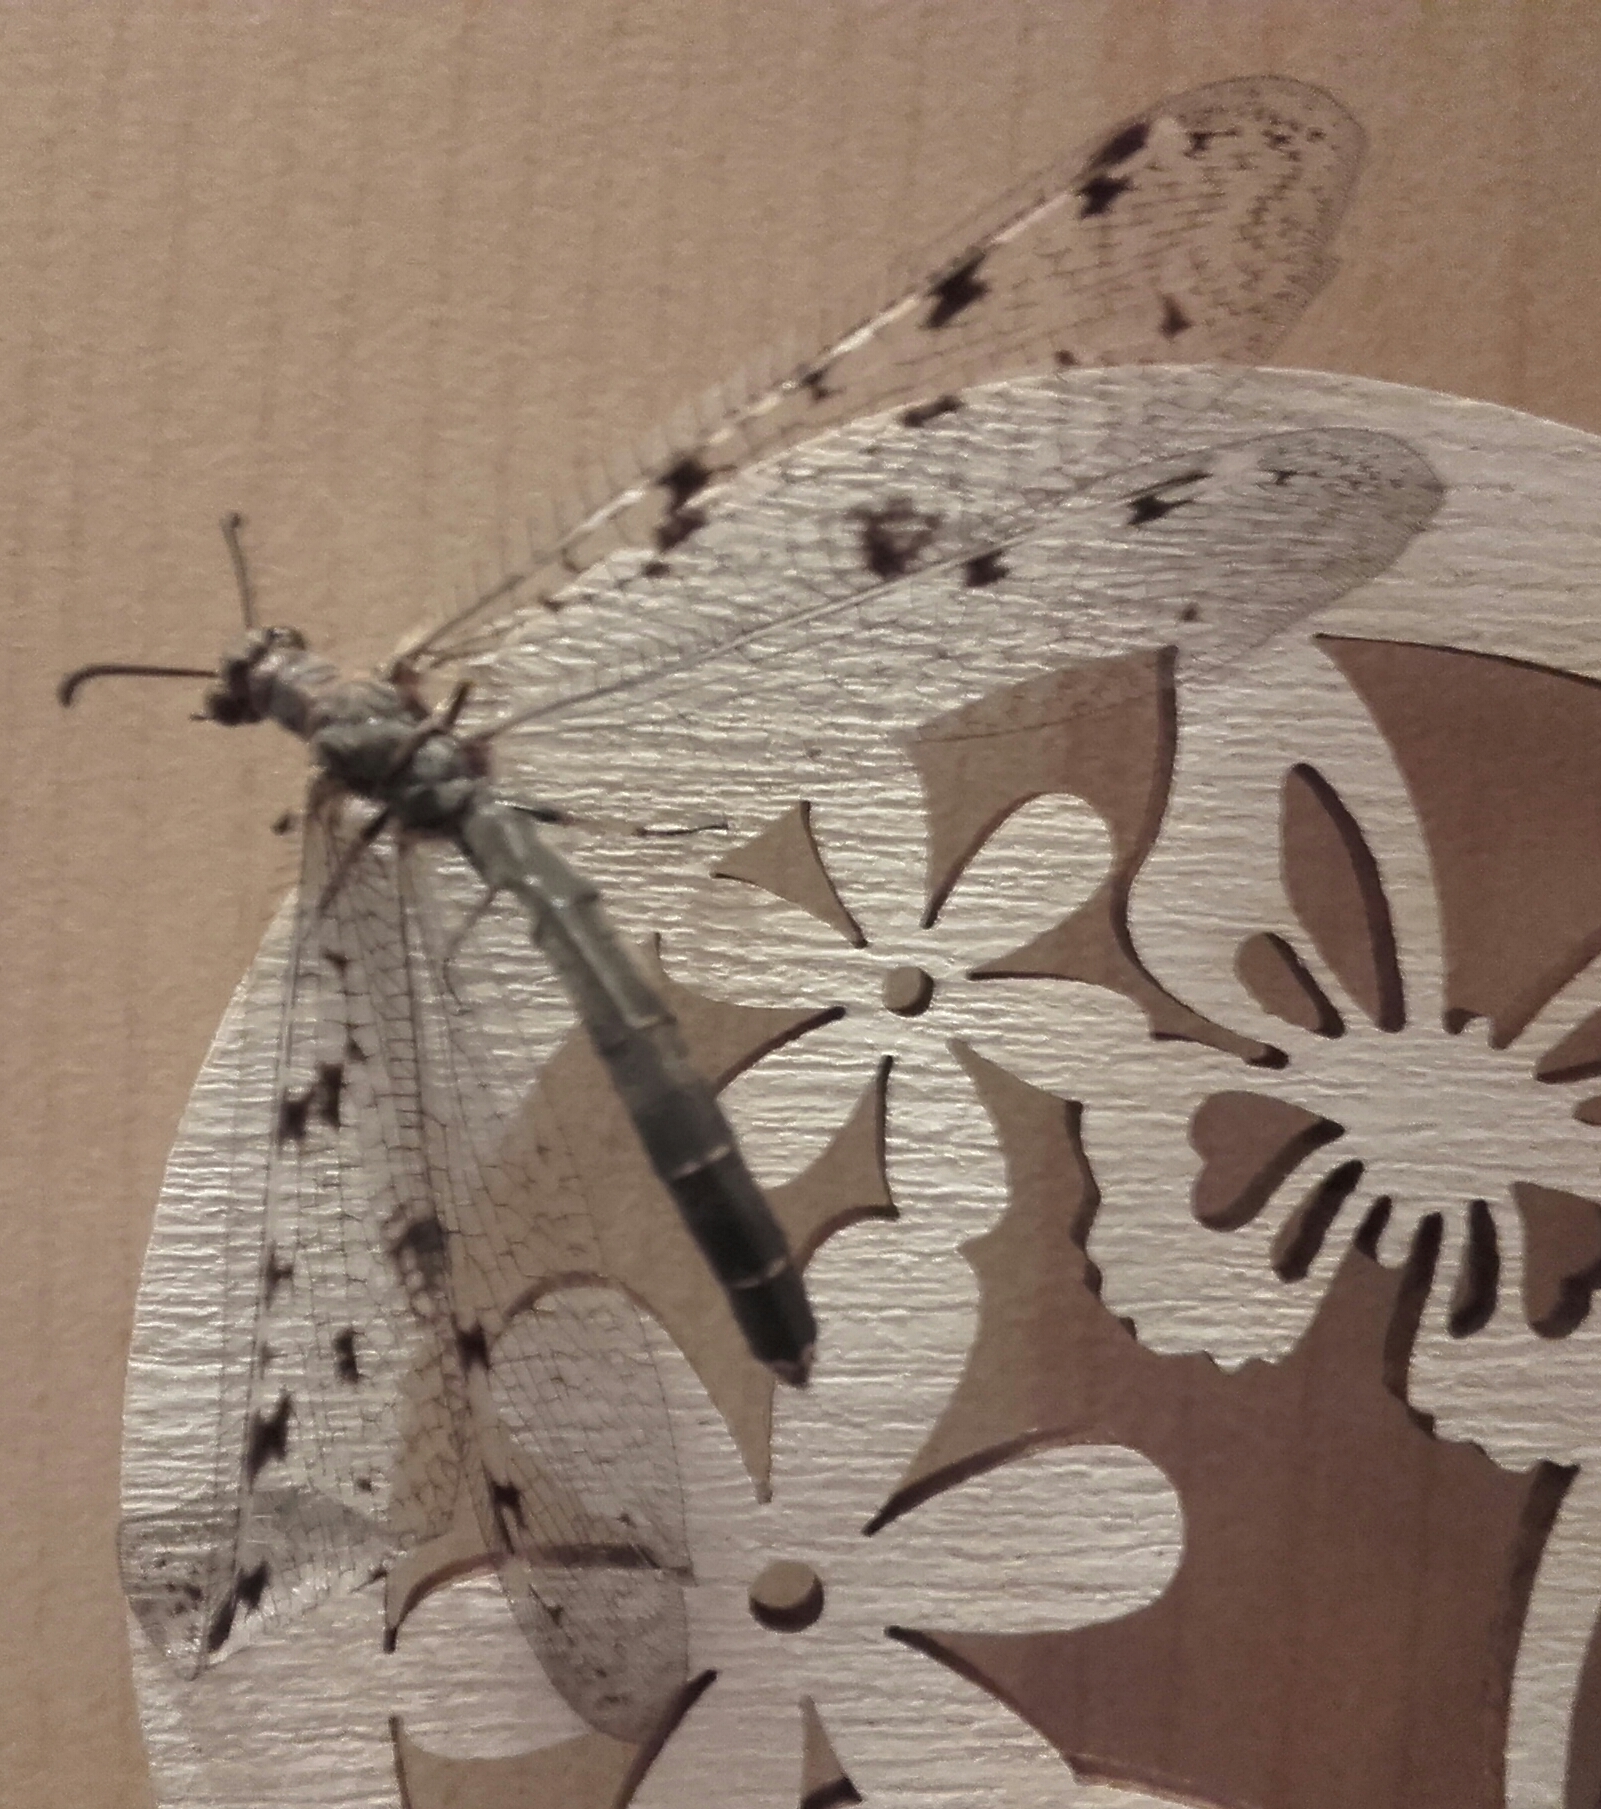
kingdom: Animalia
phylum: Arthropoda
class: Insecta
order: Neuroptera
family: Myrmeleontidae
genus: Euroleon
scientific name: Euroleon nostras
